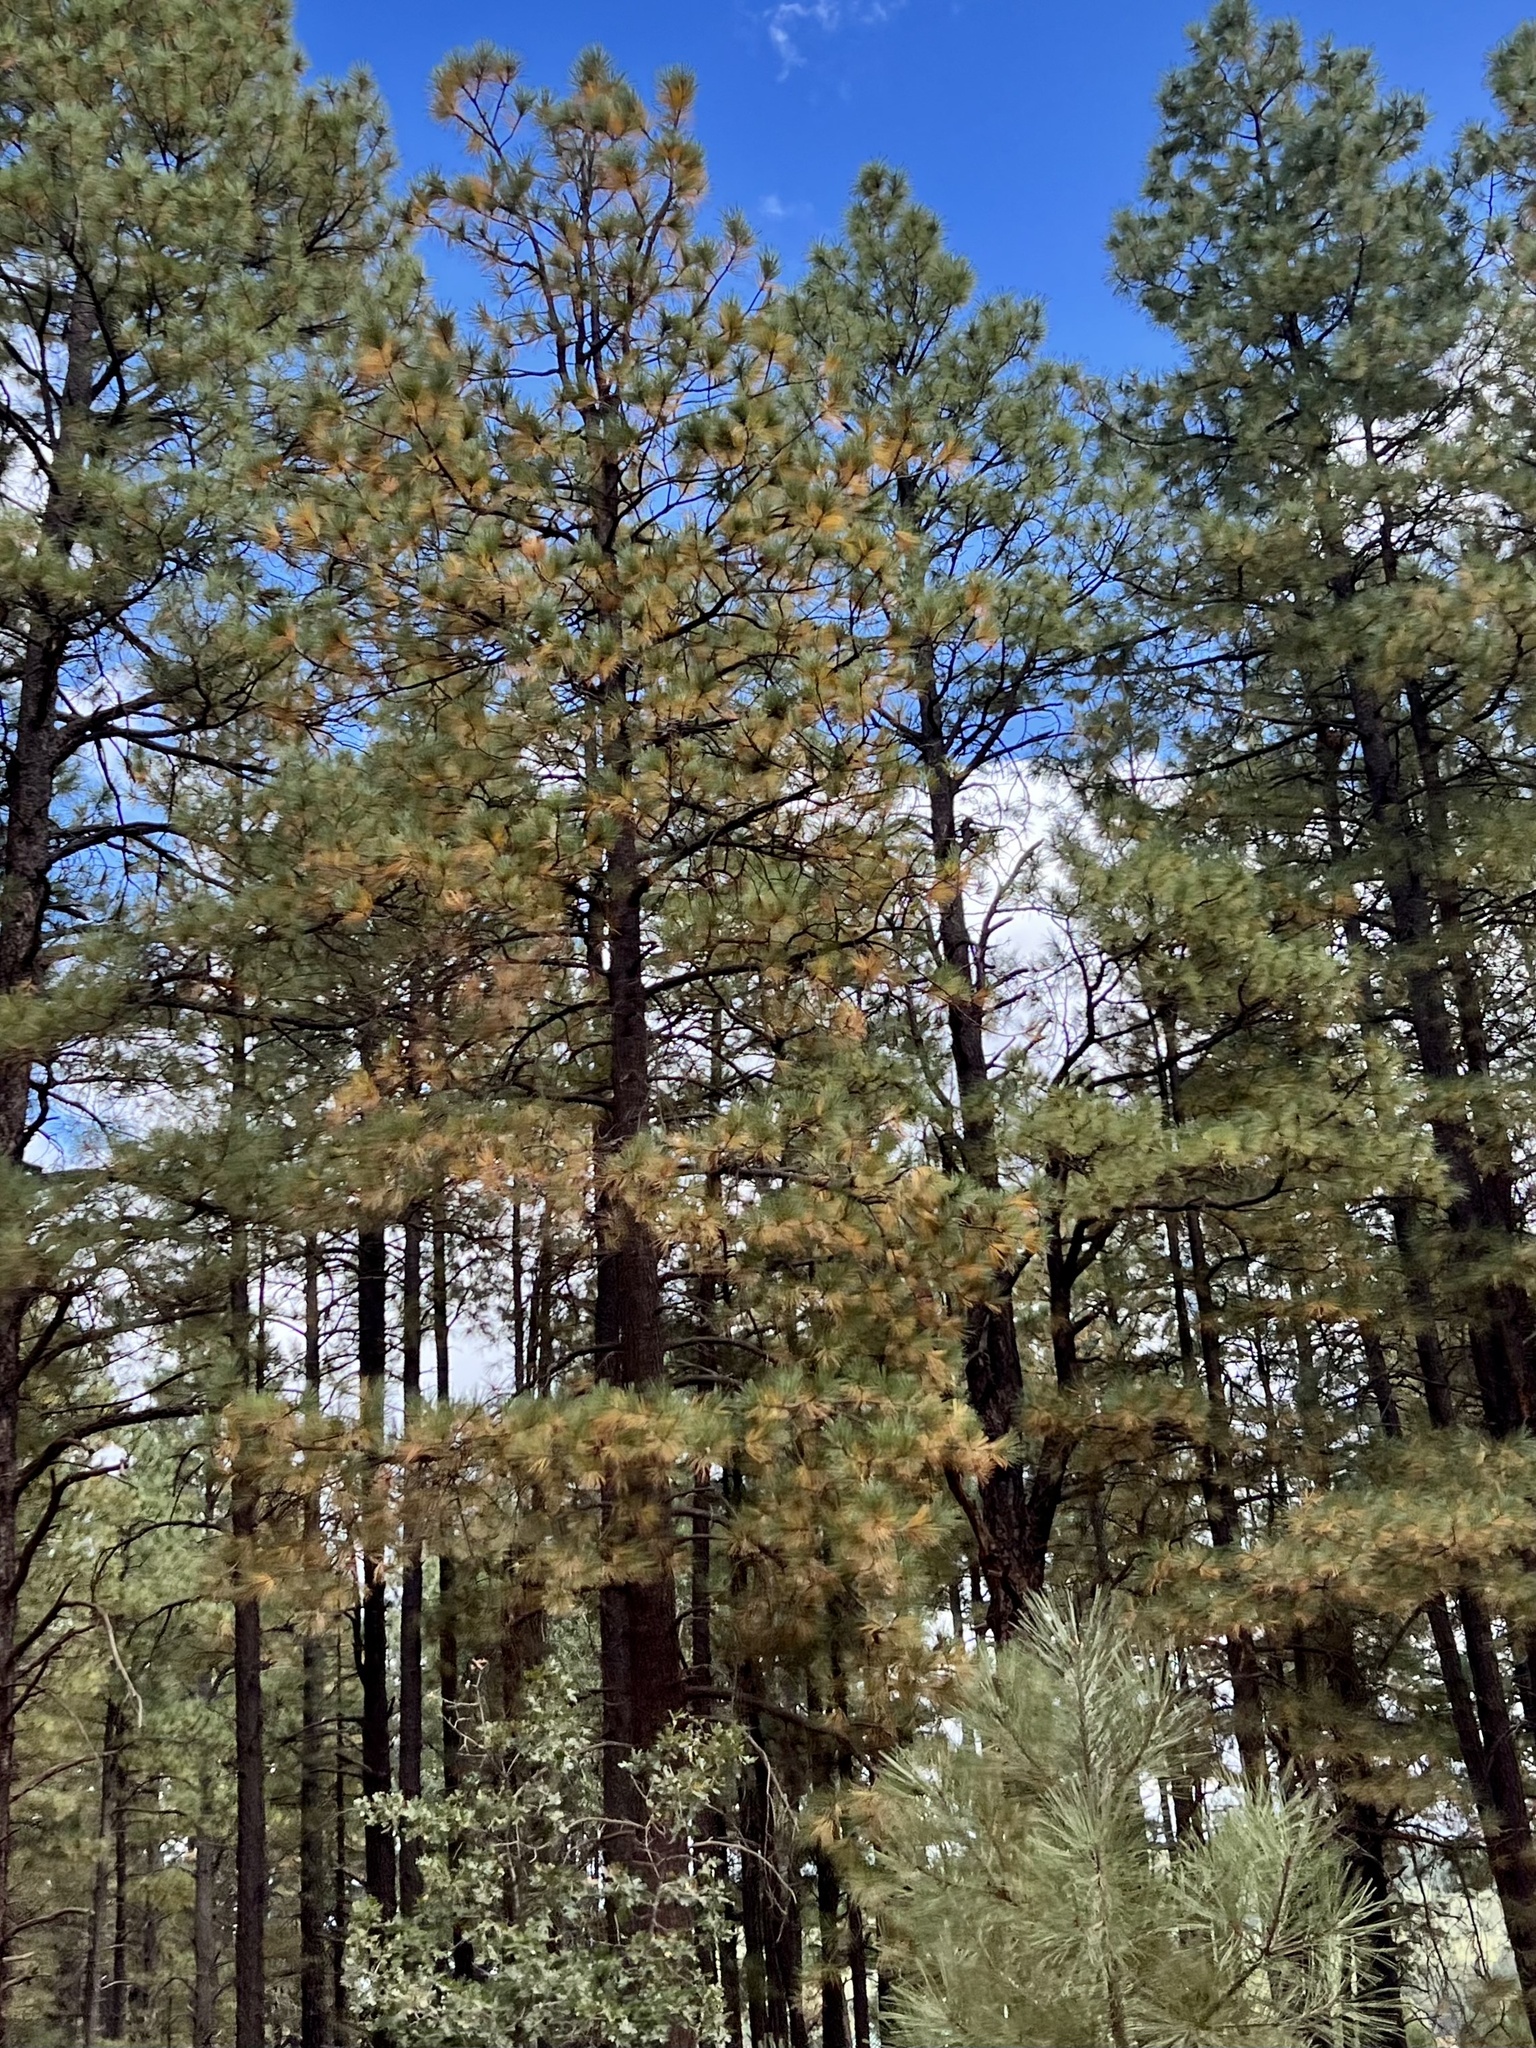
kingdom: Plantae
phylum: Tracheophyta
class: Pinopsida
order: Pinales
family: Pinaceae
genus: Pinus
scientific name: Pinus ponderosa
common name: Western yellow-pine
